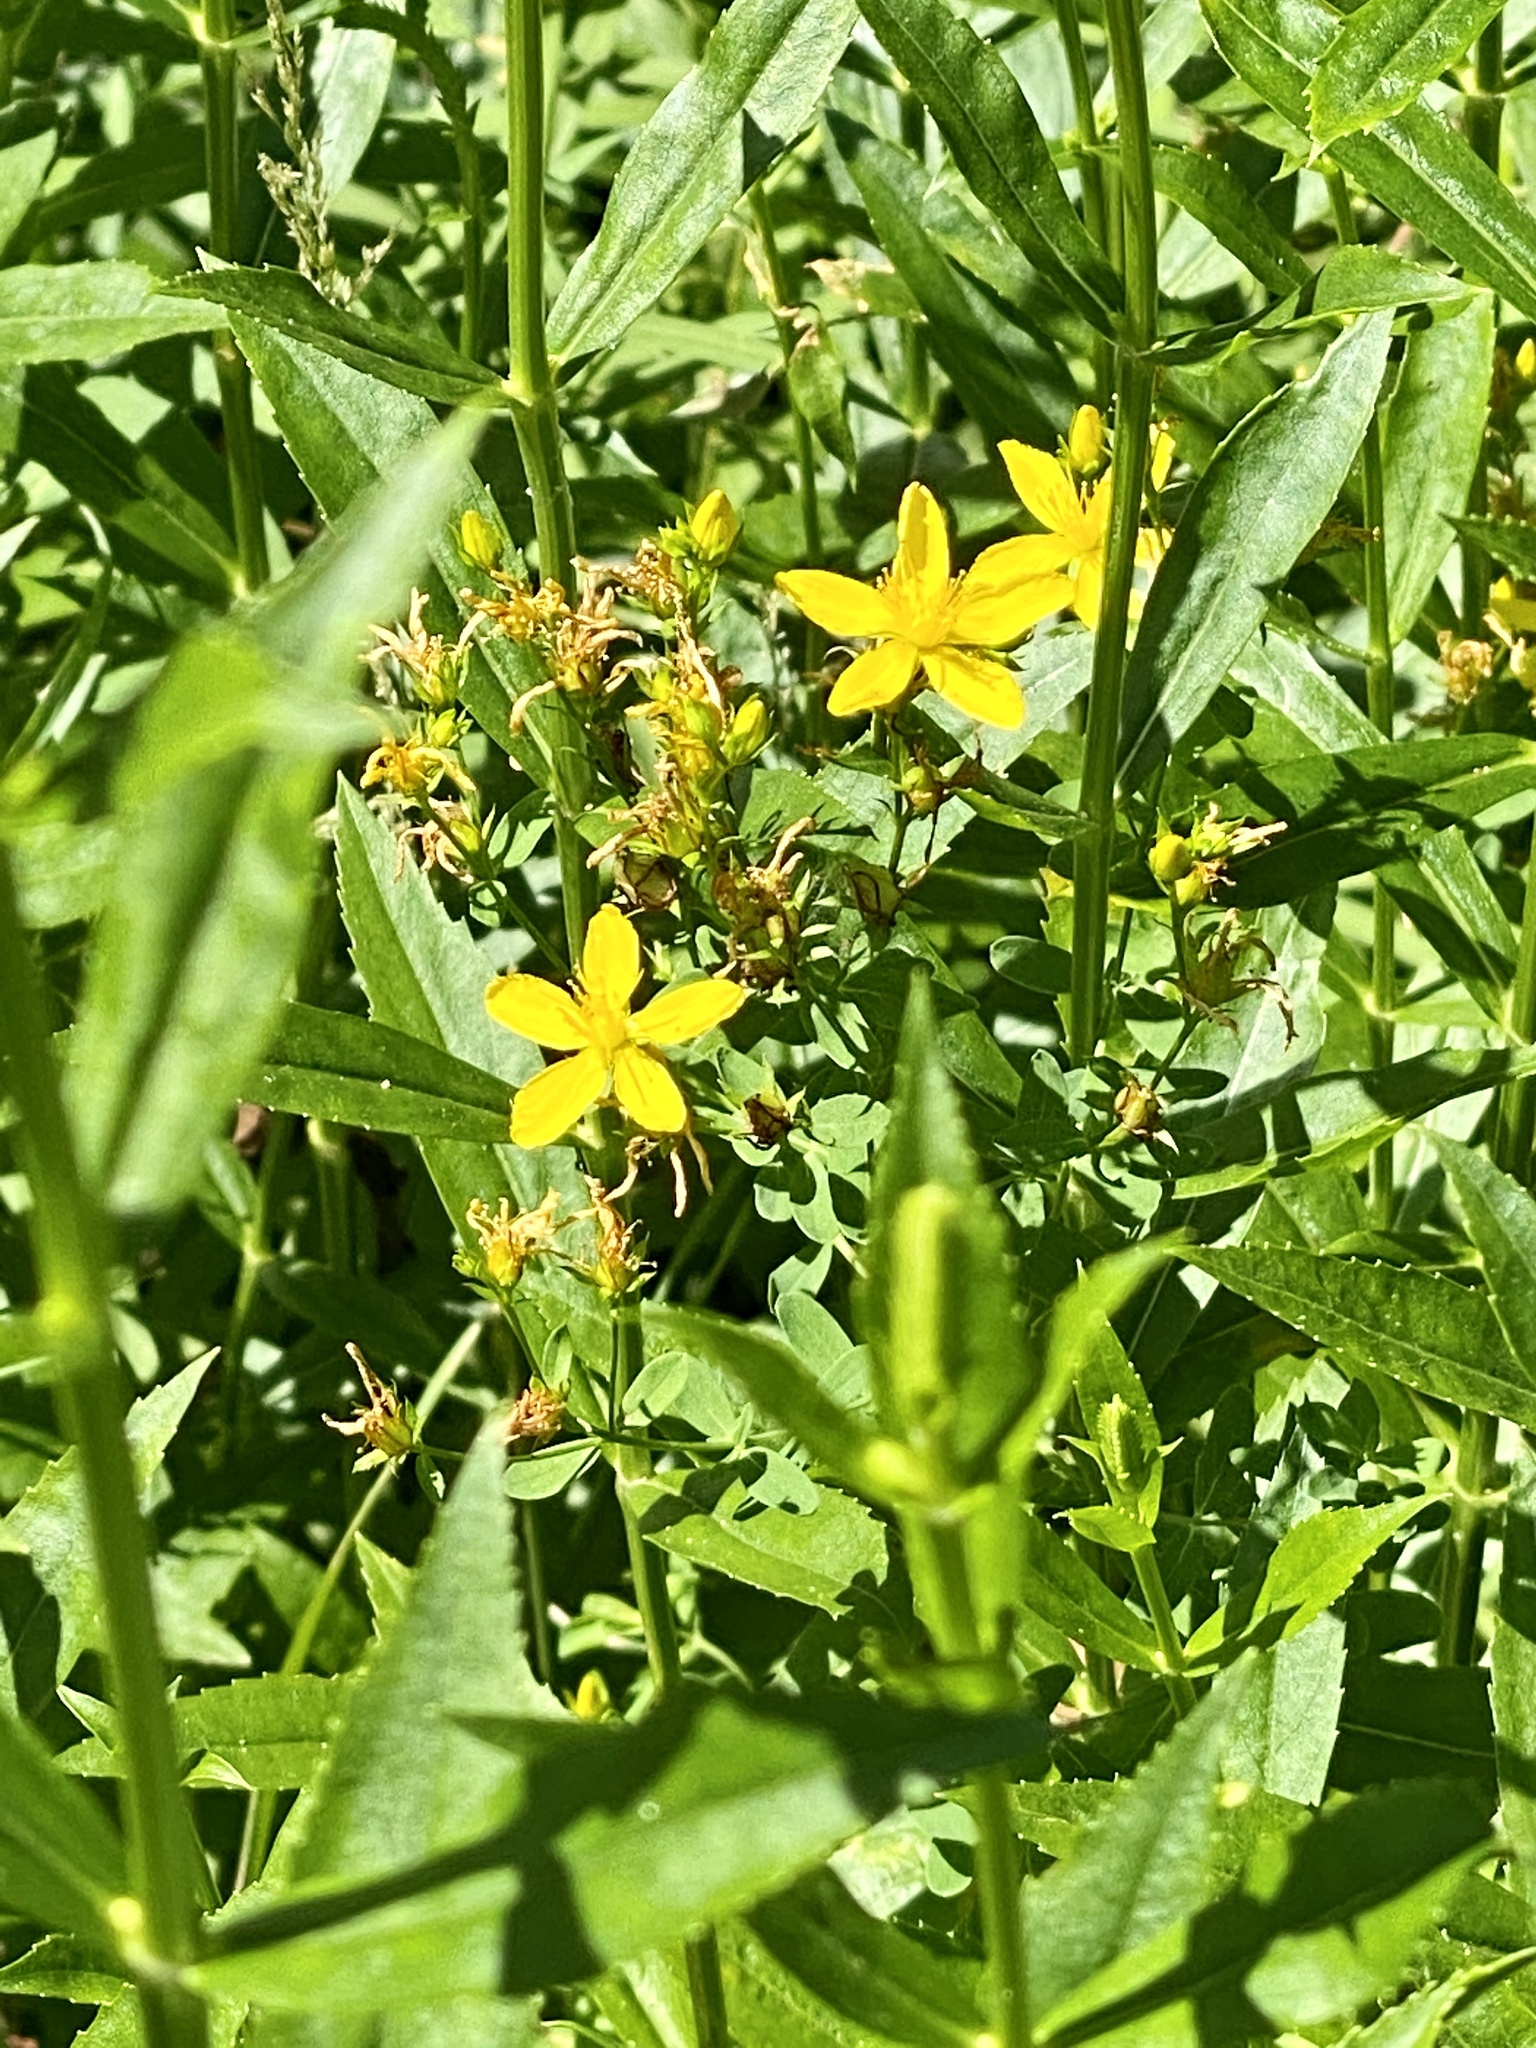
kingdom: Plantae
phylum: Tracheophyta
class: Magnoliopsida
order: Malpighiales
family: Hypericaceae
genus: Hypericum
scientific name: Hypericum perforatum
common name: Common st. johnswort
